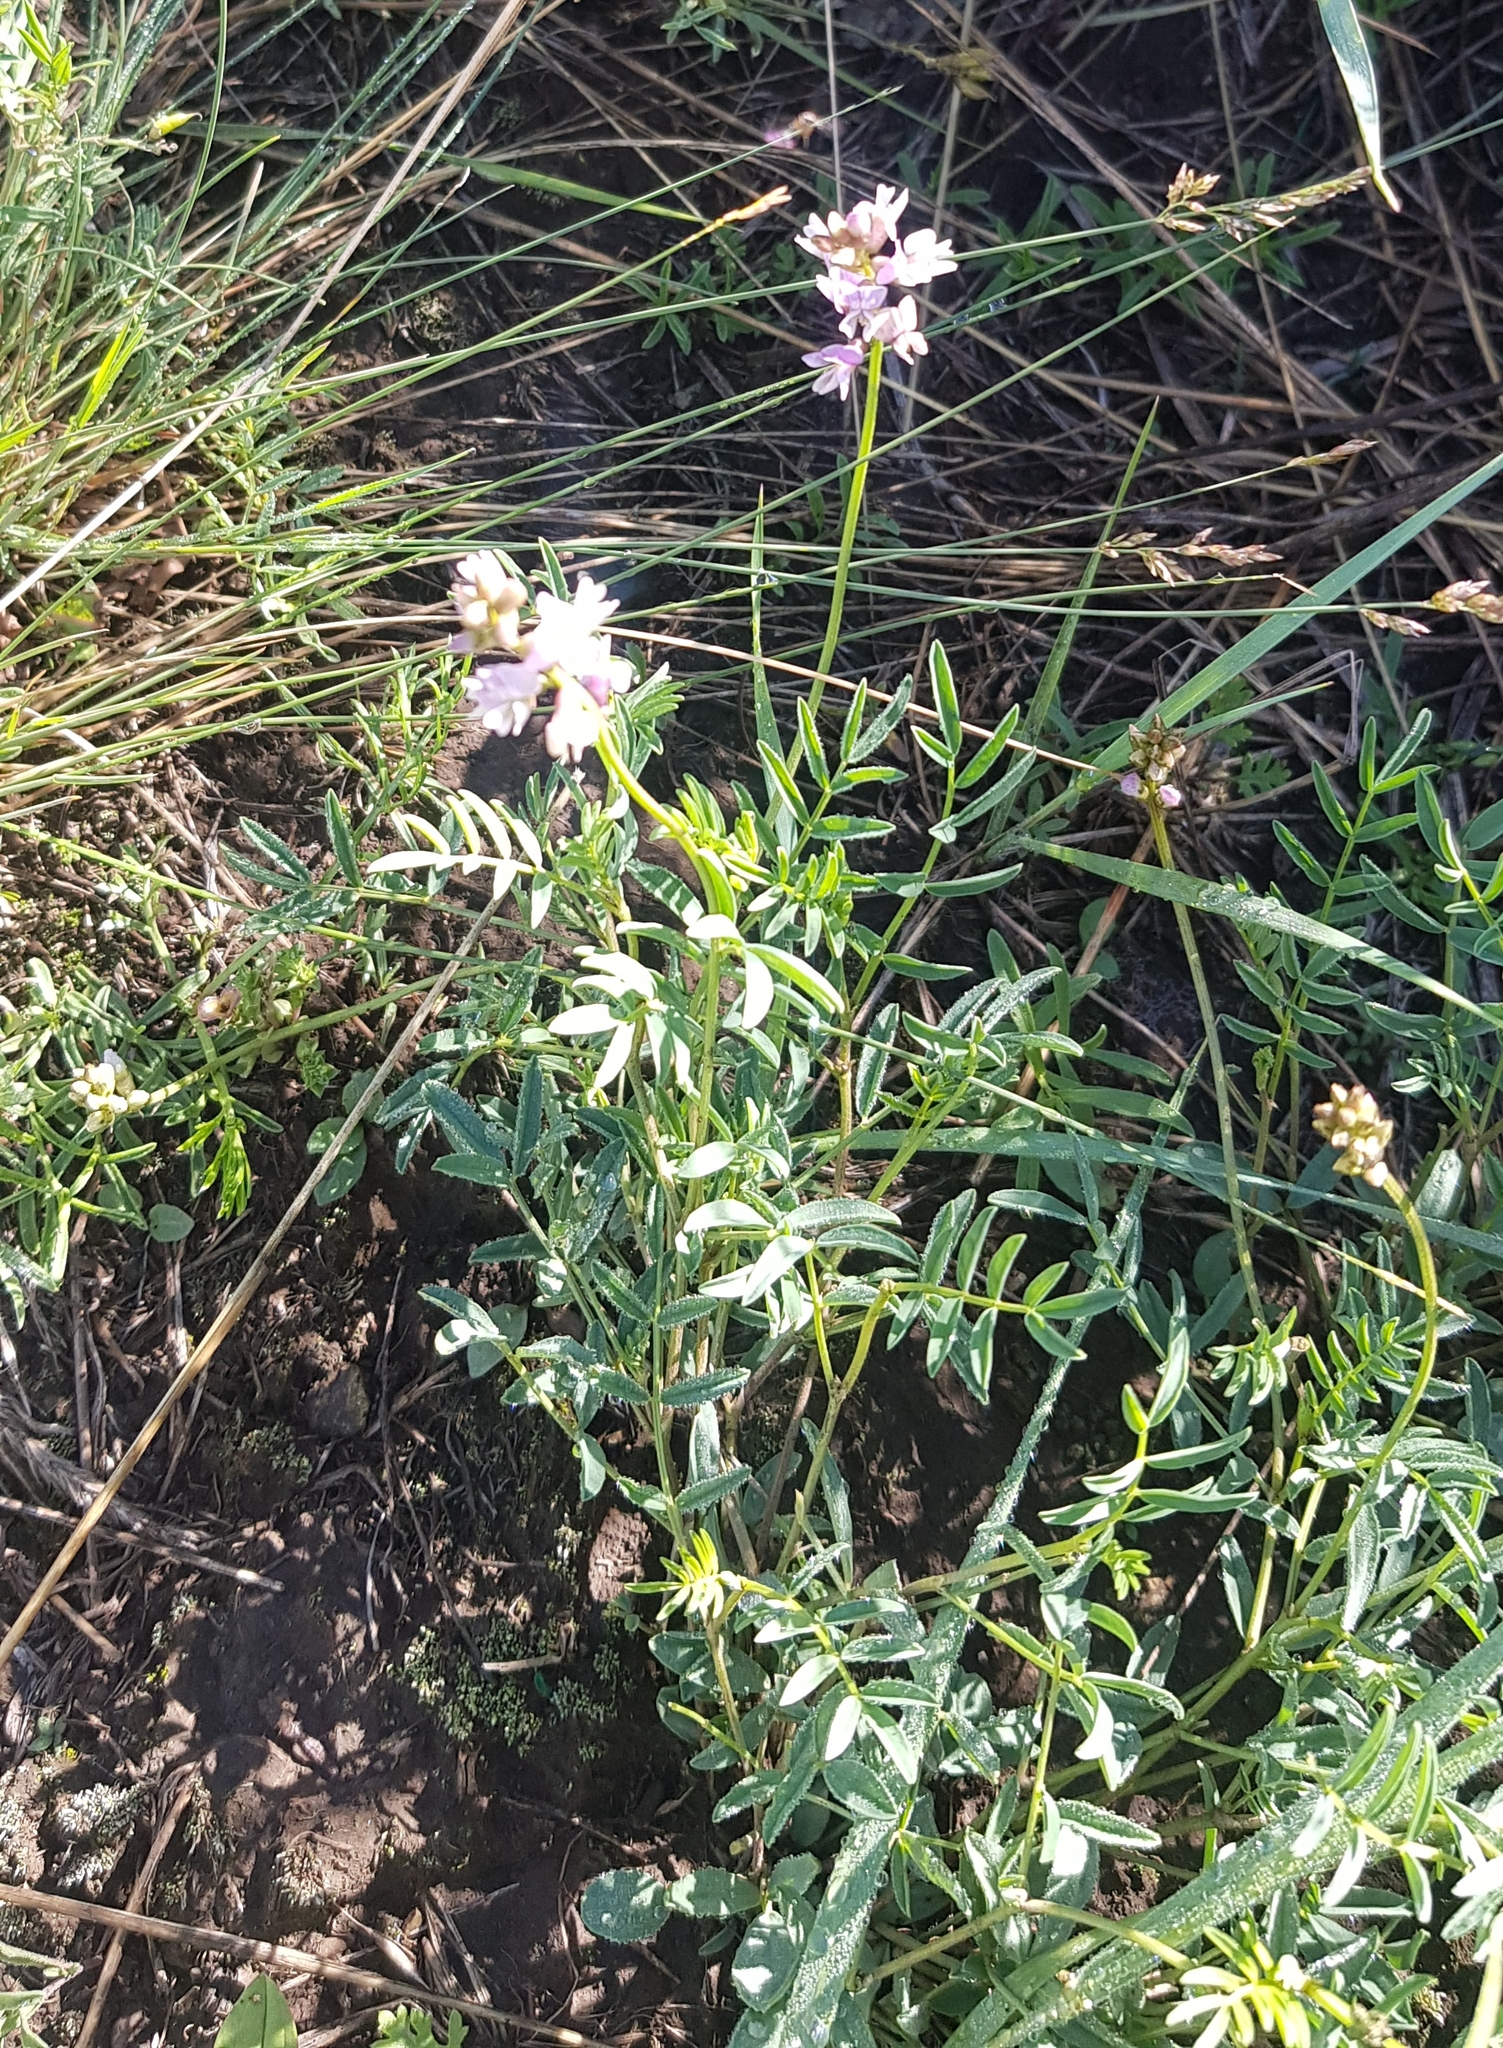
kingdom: Plantae
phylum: Tracheophyta
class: Magnoliopsida
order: Fabales
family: Fabaceae
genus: Astragalus
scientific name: Astragalus danicus
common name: Purple milk-vetch
